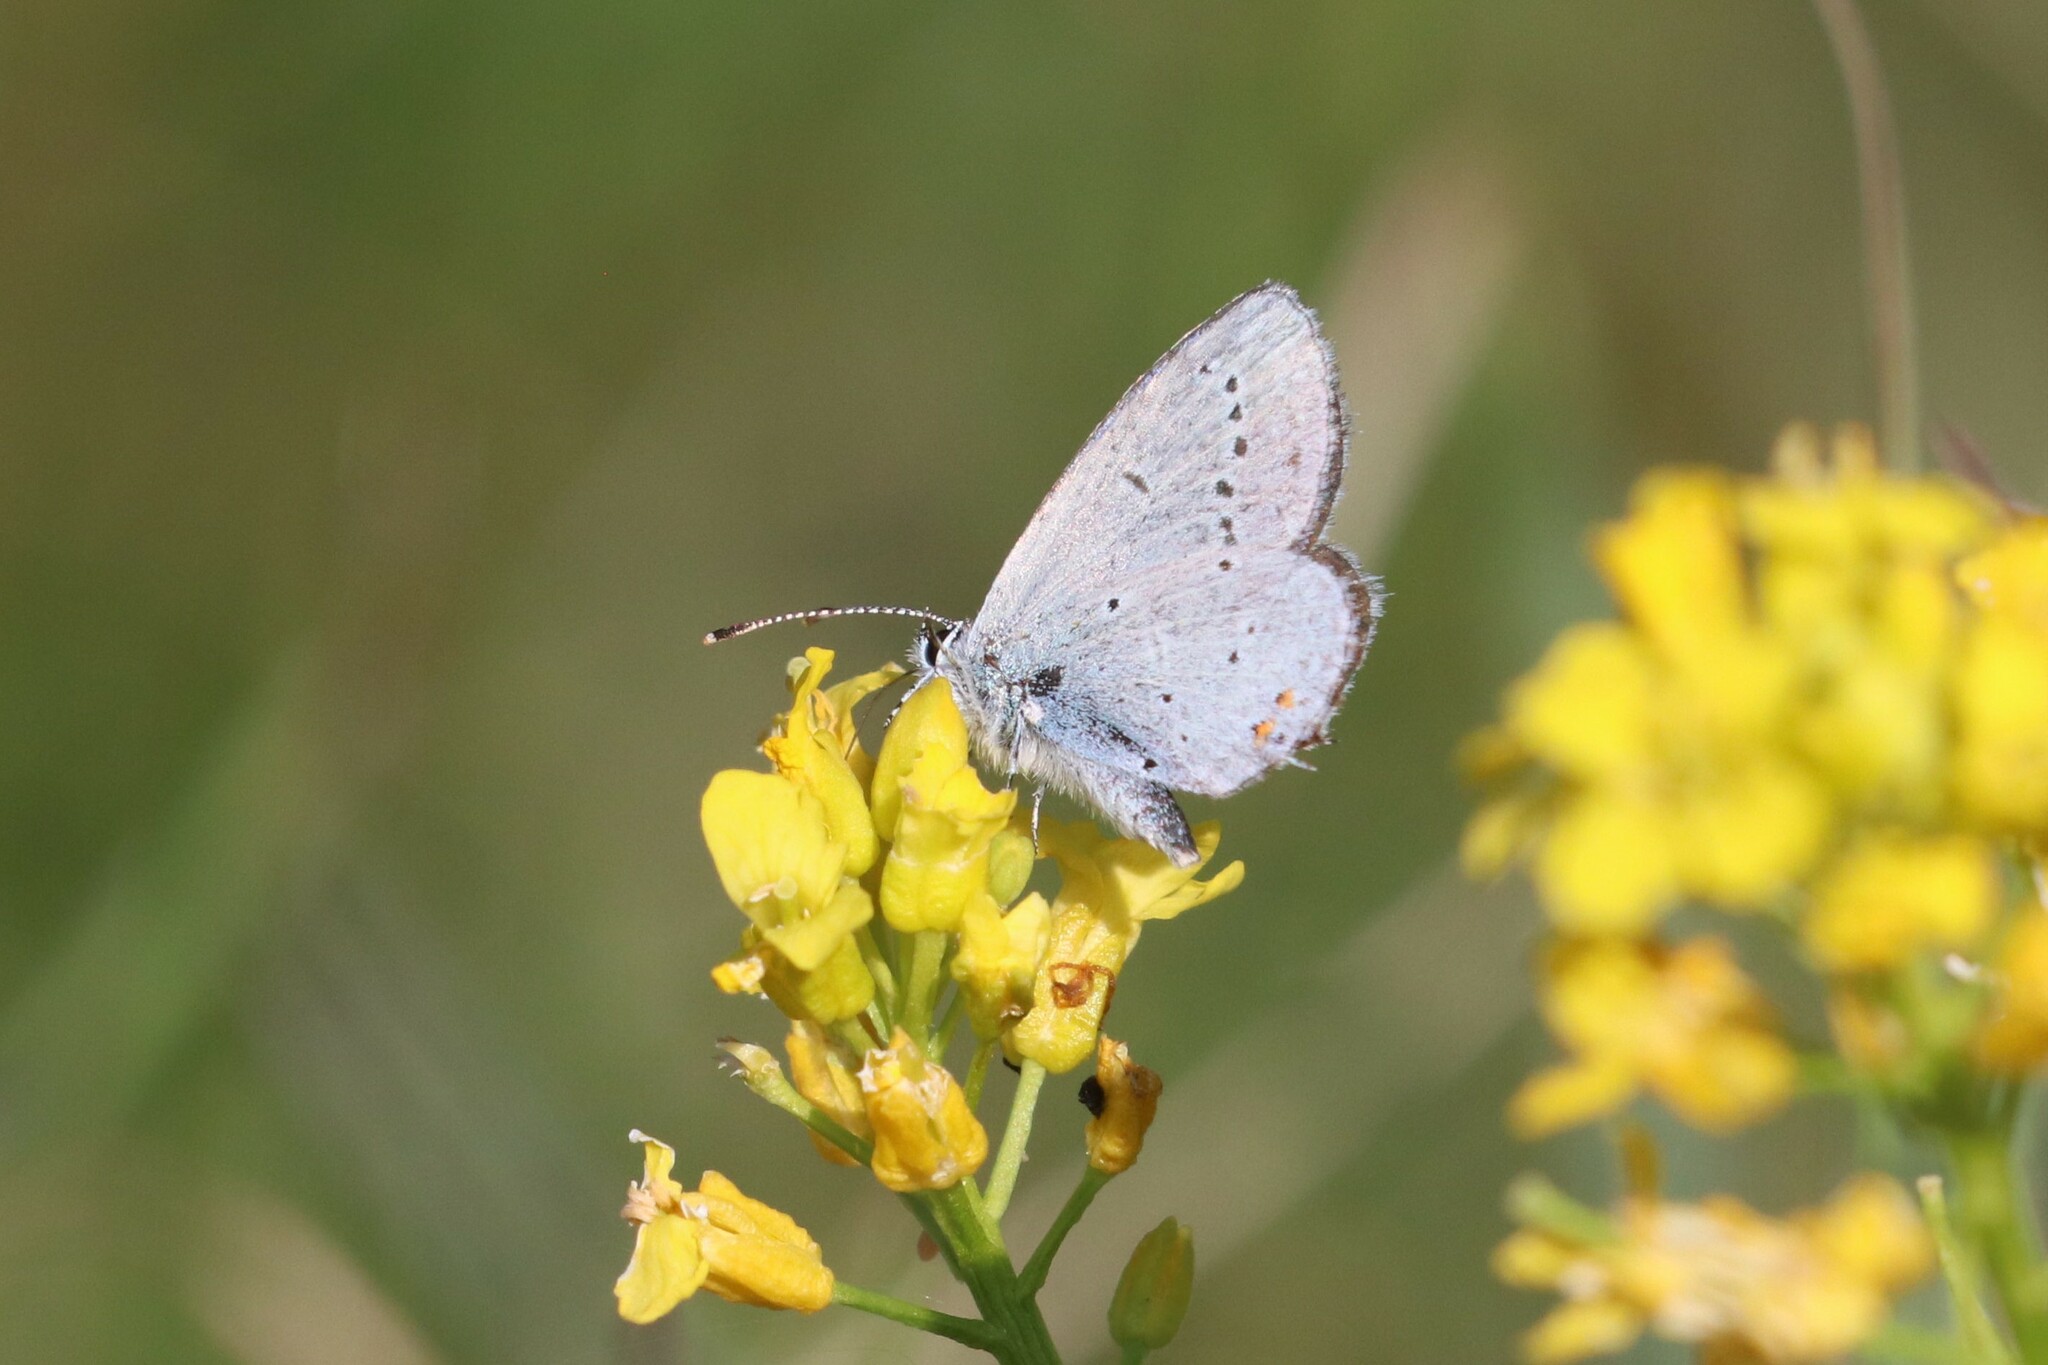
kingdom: Animalia
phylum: Arthropoda
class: Insecta
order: Lepidoptera
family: Lycaenidae
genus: Elkalyce
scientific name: Elkalyce argiades
